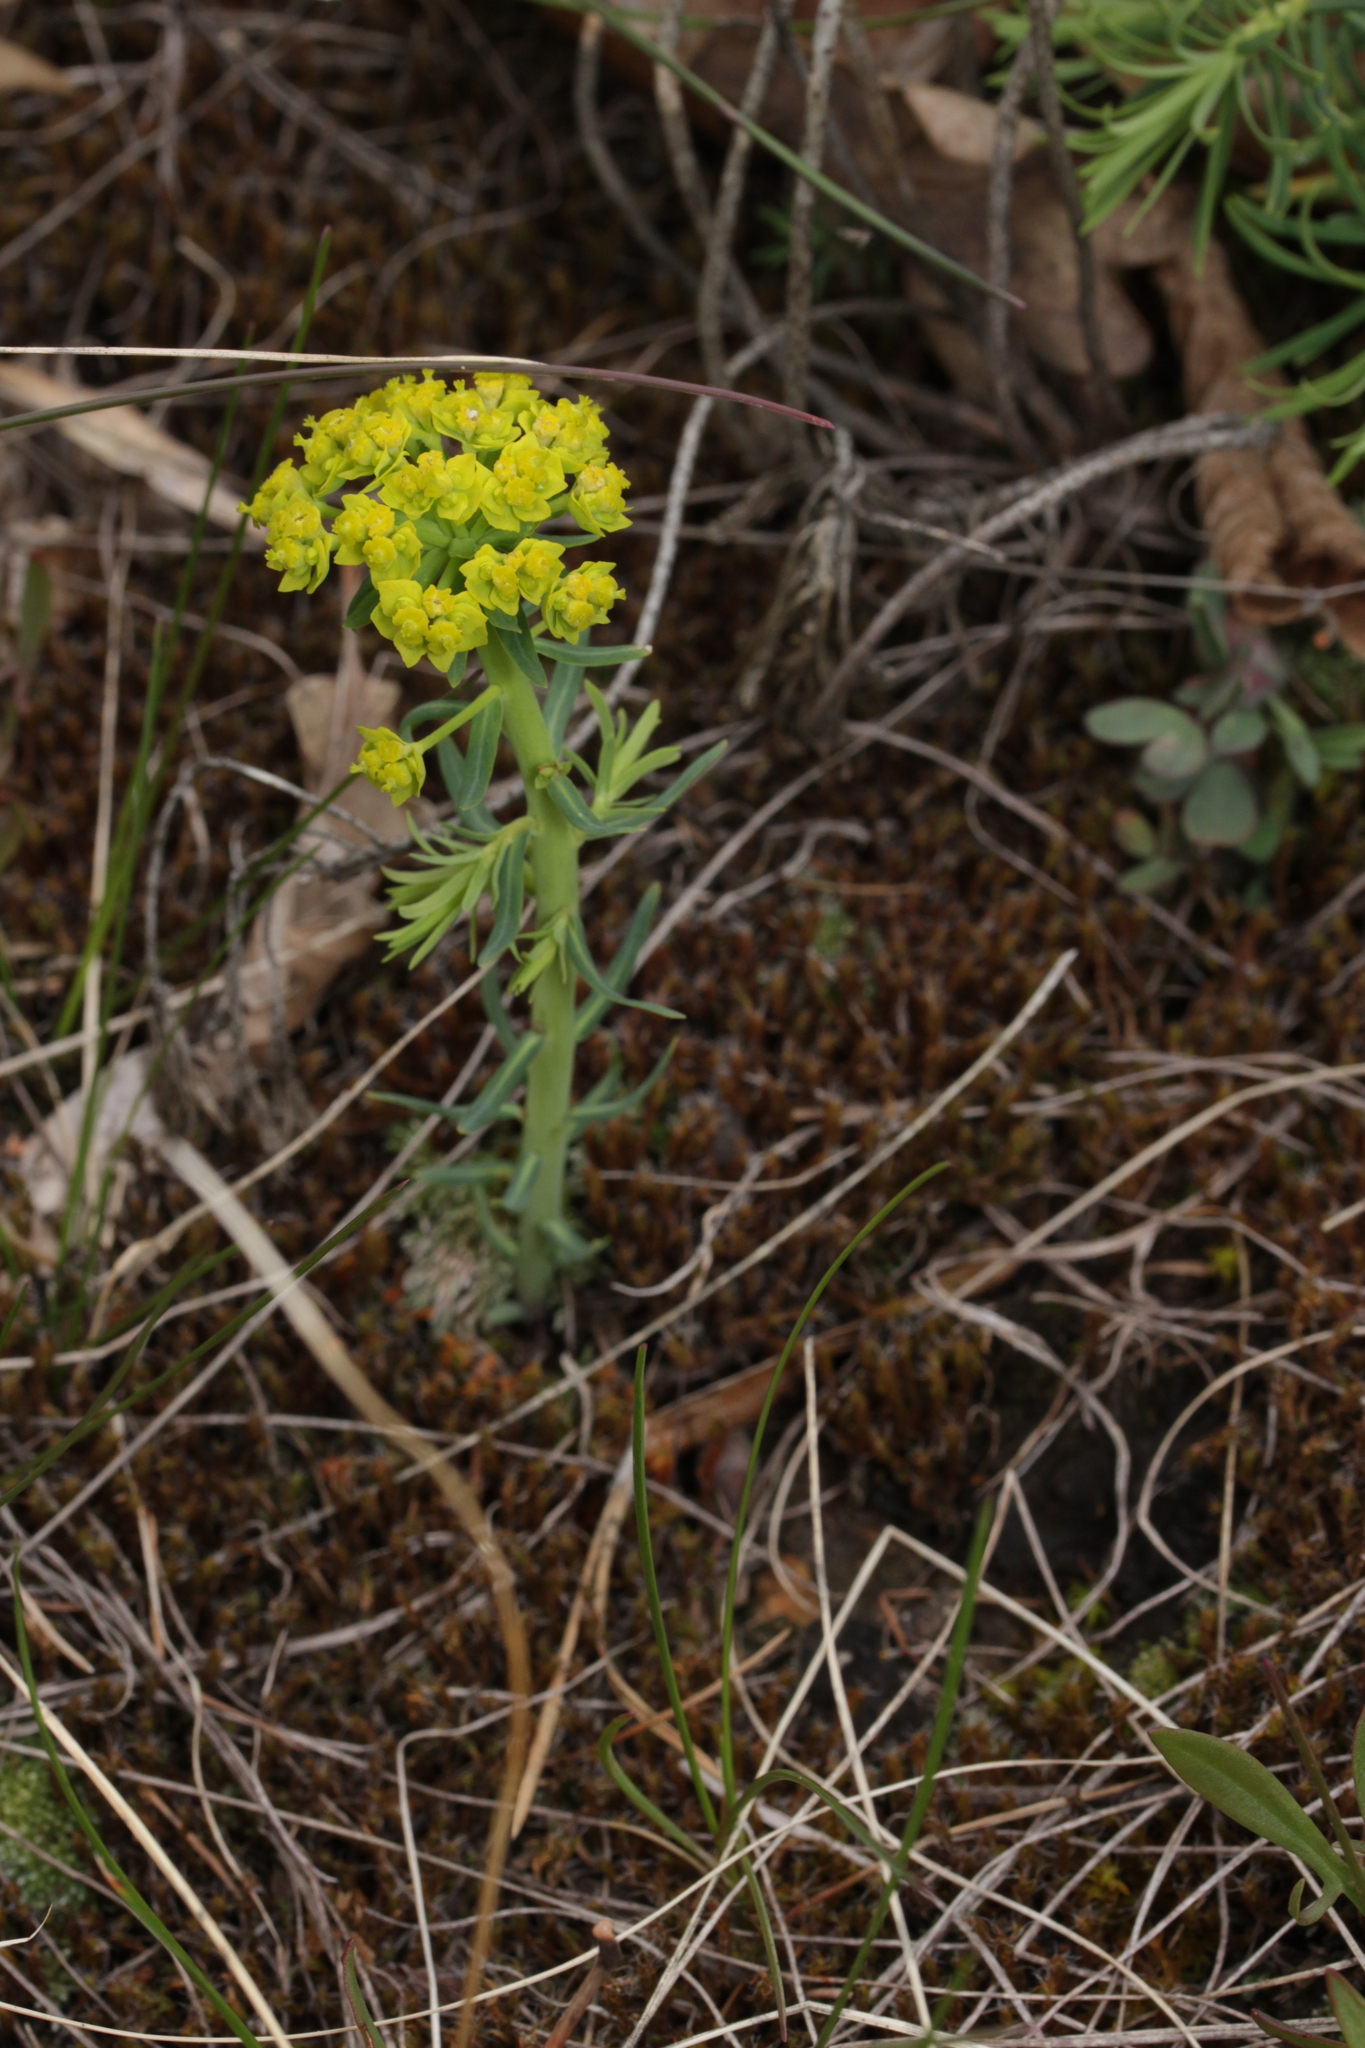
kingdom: Plantae
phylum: Tracheophyta
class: Magnoliopsida
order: Malpighiales
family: Euphorbiaceae
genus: Euphorbia
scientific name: Euphorbia cyparissias
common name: Cypress spurge
